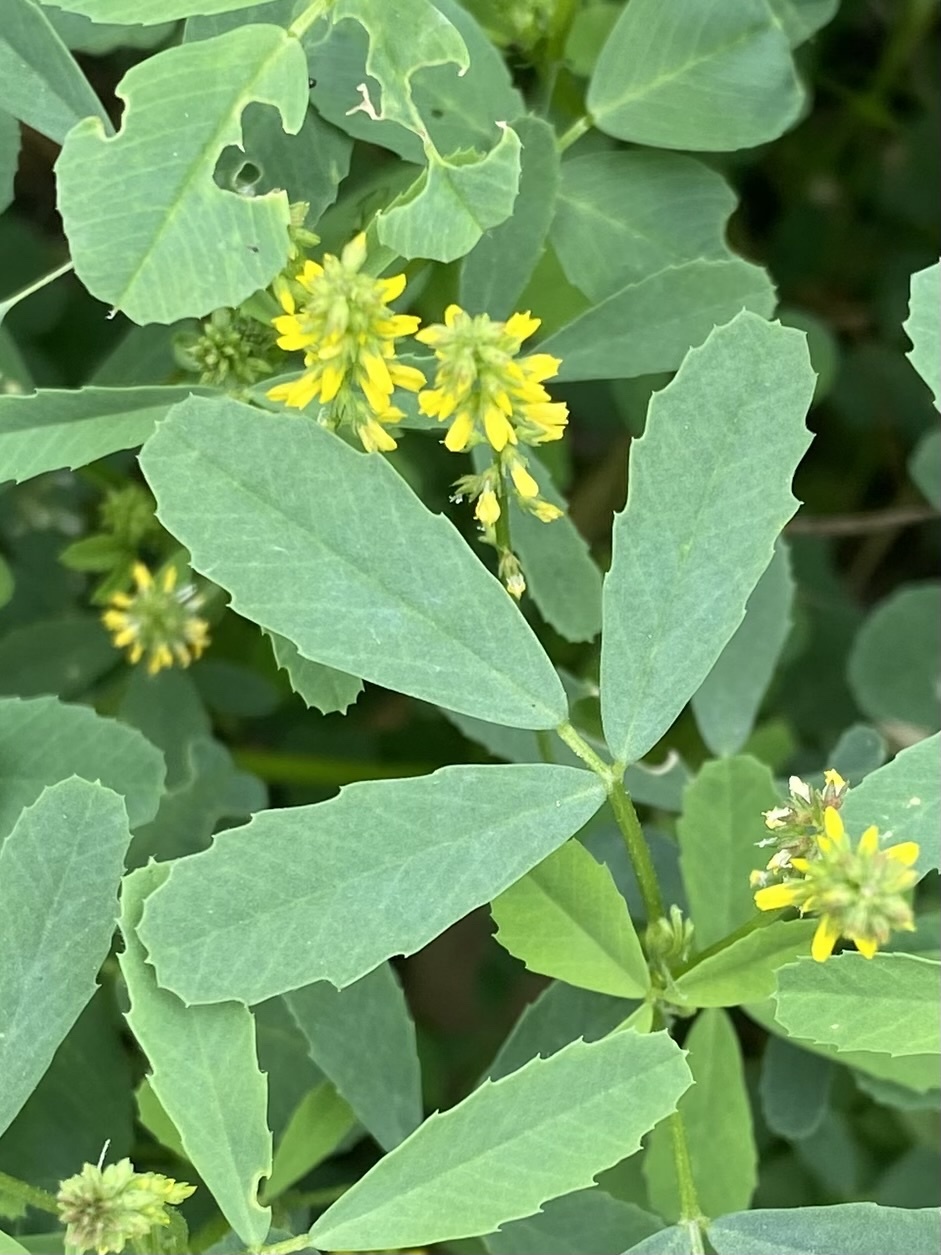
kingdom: Plantae
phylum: Tracheophyta
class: Magnoliopsida
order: Fabales
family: Fabaceae
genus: Melilotus
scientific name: Melilotus indicus
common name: Small melilot
